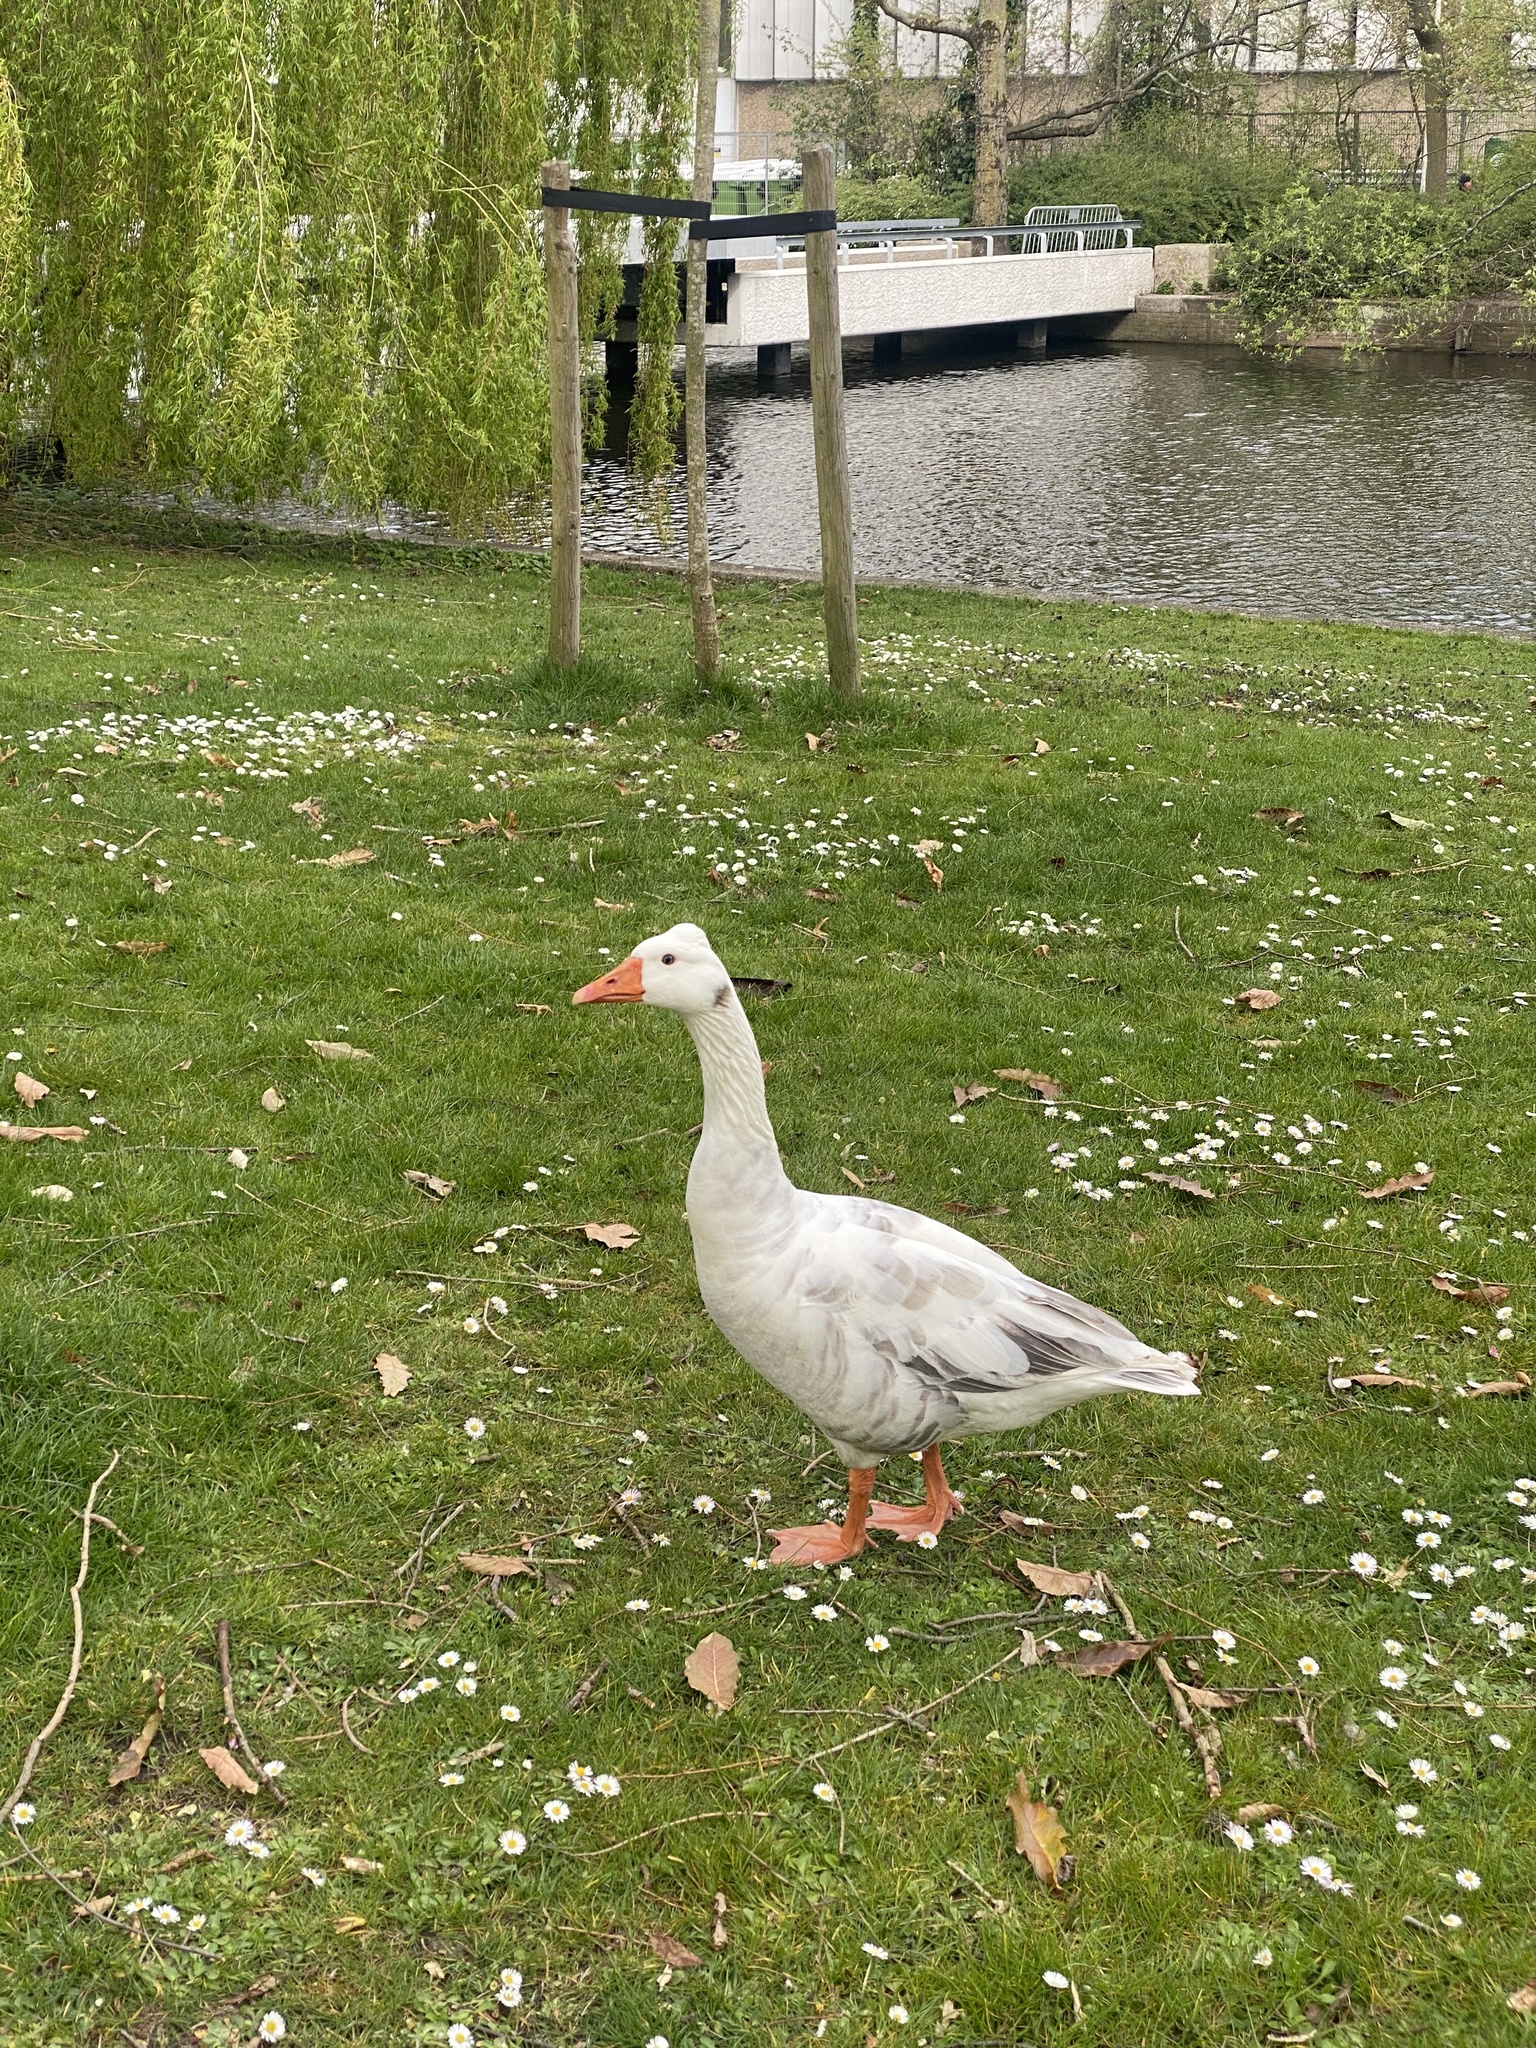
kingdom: Animalia
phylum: Chordata
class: Aves
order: Anseriformes
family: Anatidae
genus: Anser
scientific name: Anser anser
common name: Greylag goose
